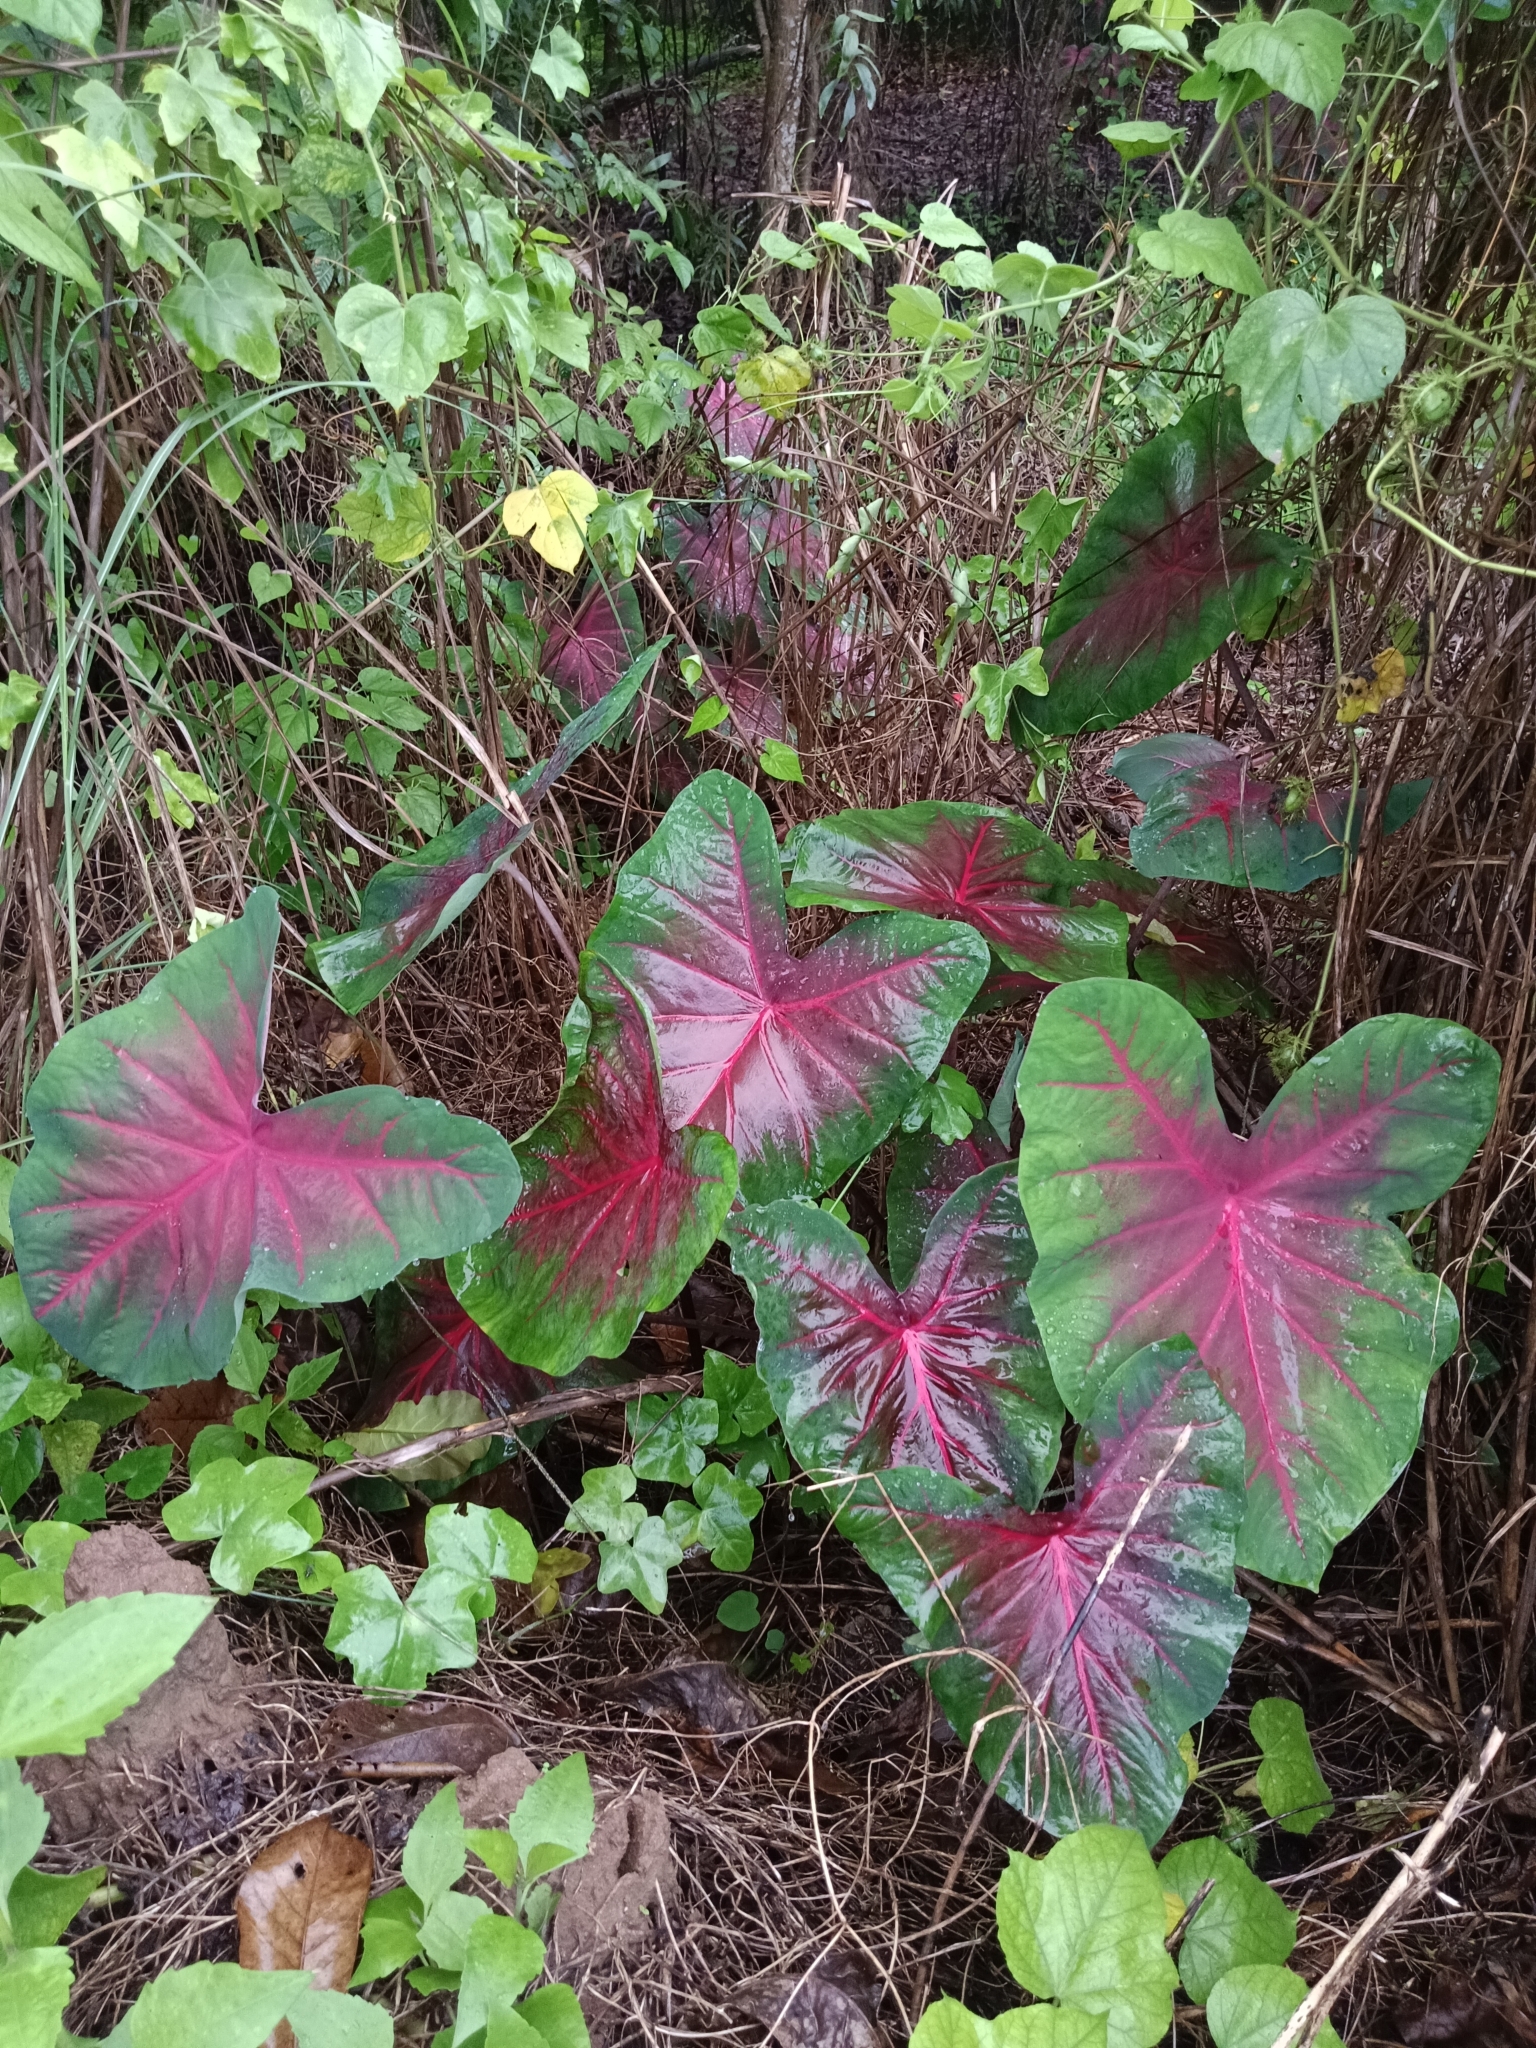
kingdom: Plantae
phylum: Tracheophyta
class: Liliopsida
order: Alismatales
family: Araceae
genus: Caladium
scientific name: Caladium bicolor
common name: Artist's pallet
